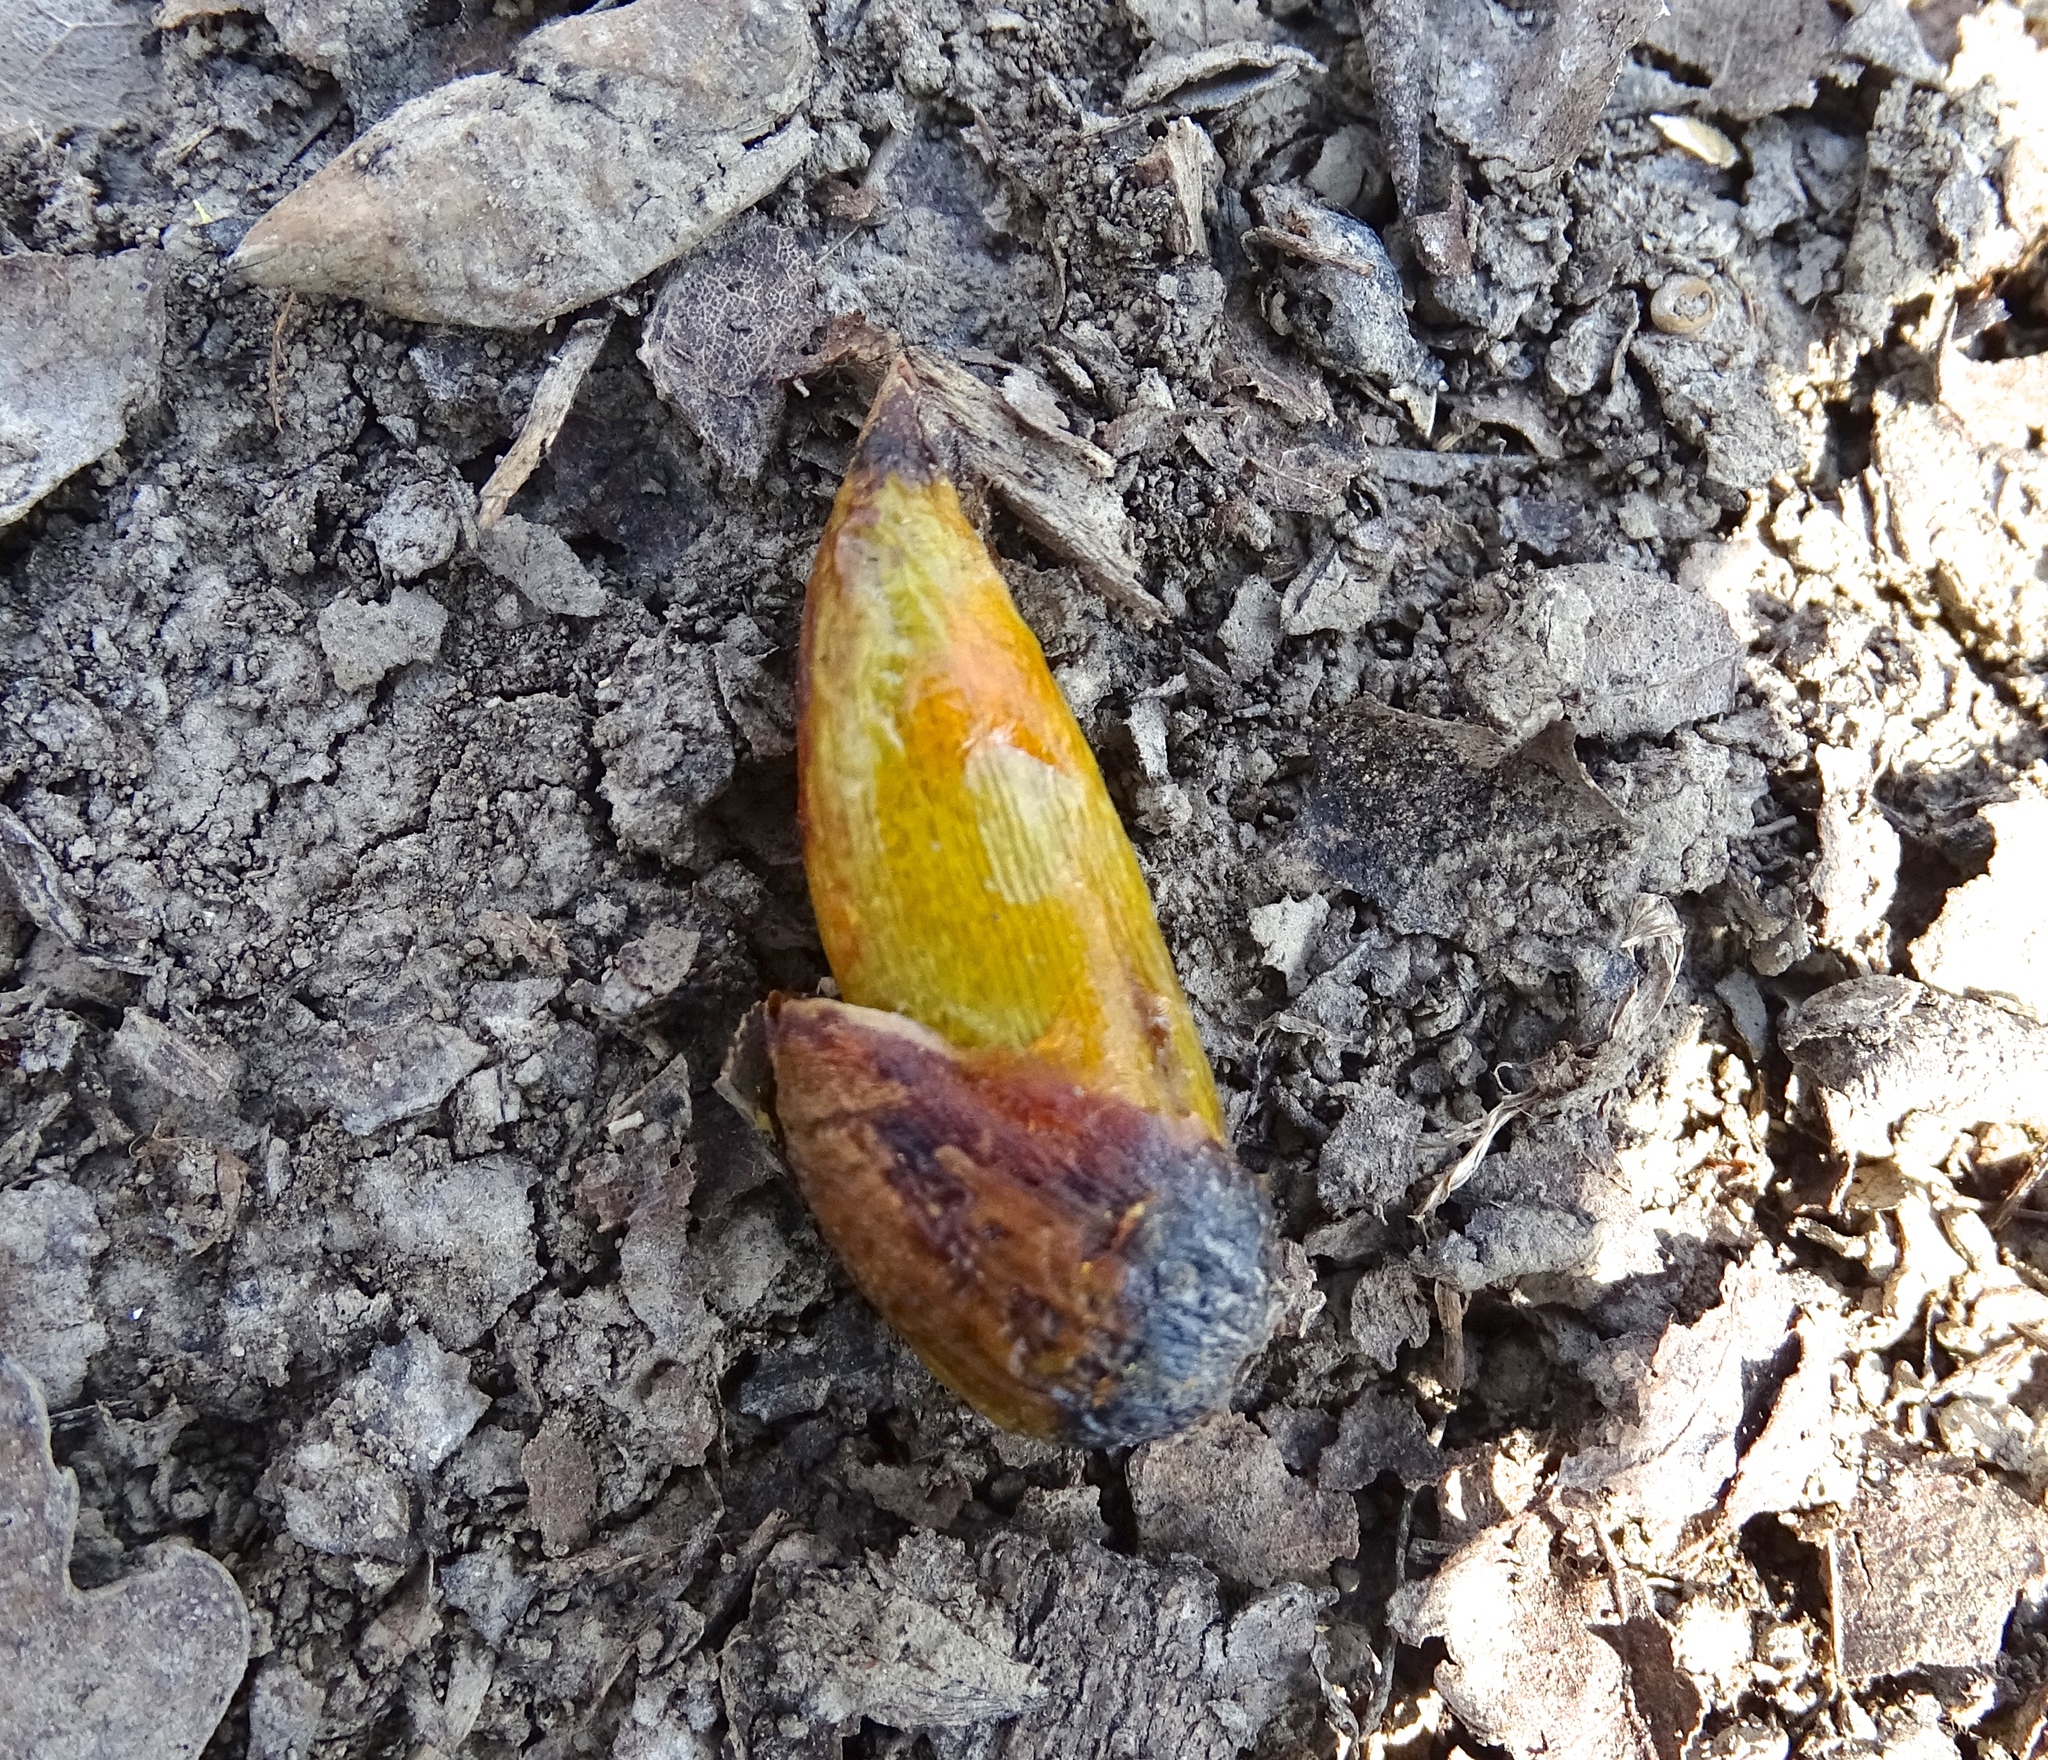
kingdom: Plantae
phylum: Tracheophyta
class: Magnoliopsida
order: Magnoliales
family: Magnoliaceae
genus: Liriodendron
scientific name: Liriodendron tulipifera
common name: Tulip tree
